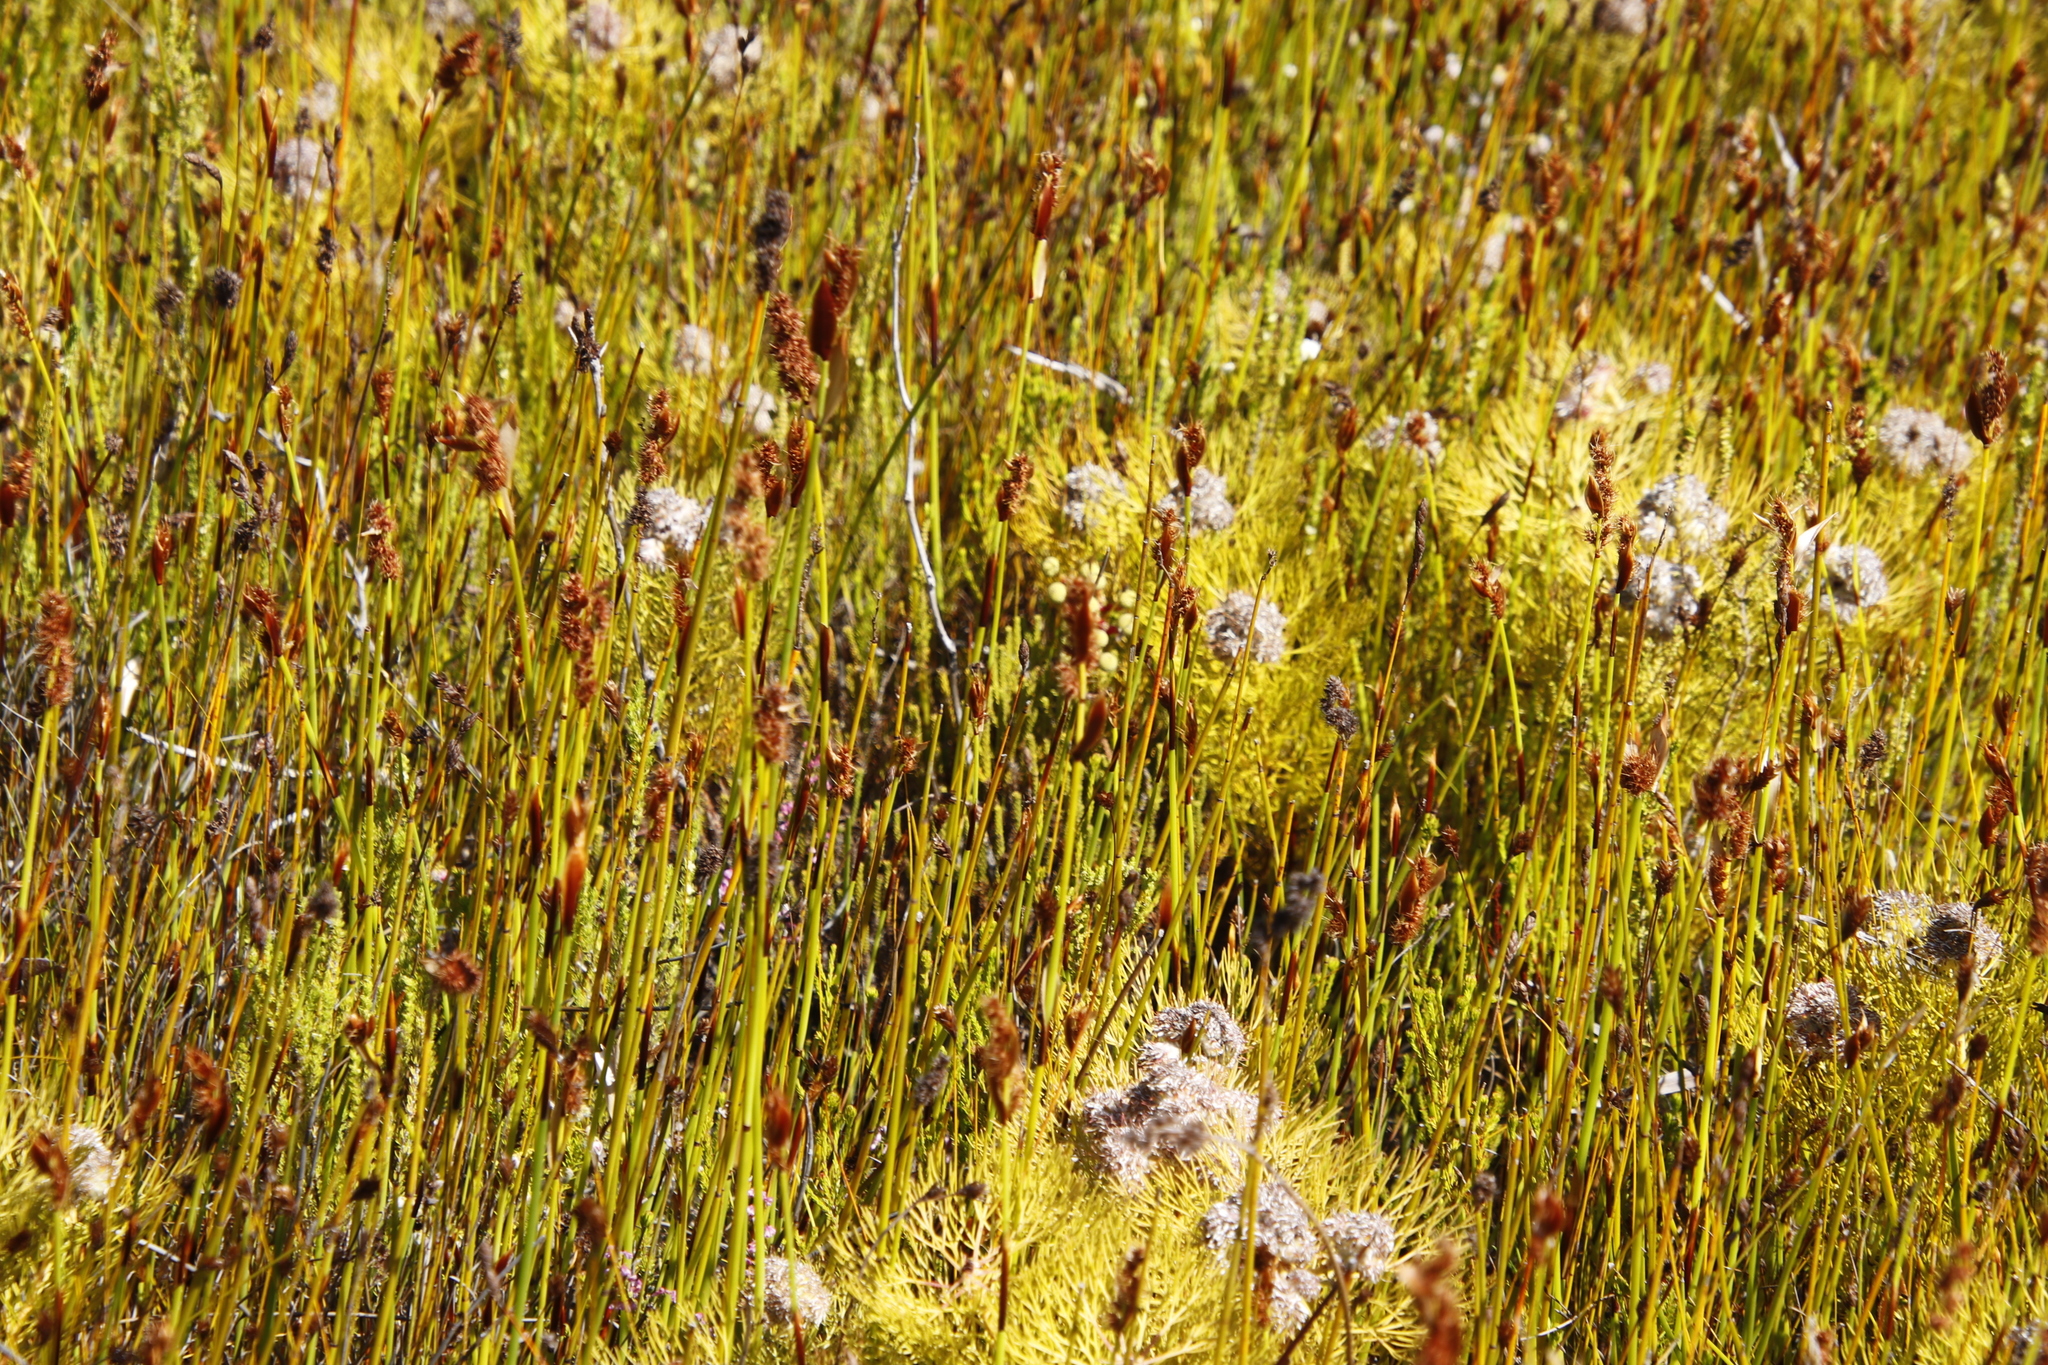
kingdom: Plantae
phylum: Tracheophyta
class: Magnoliopsida
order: Proteales
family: Proteaceae
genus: Serruria
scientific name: Serruria glomerata
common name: Cluster spiderhead
